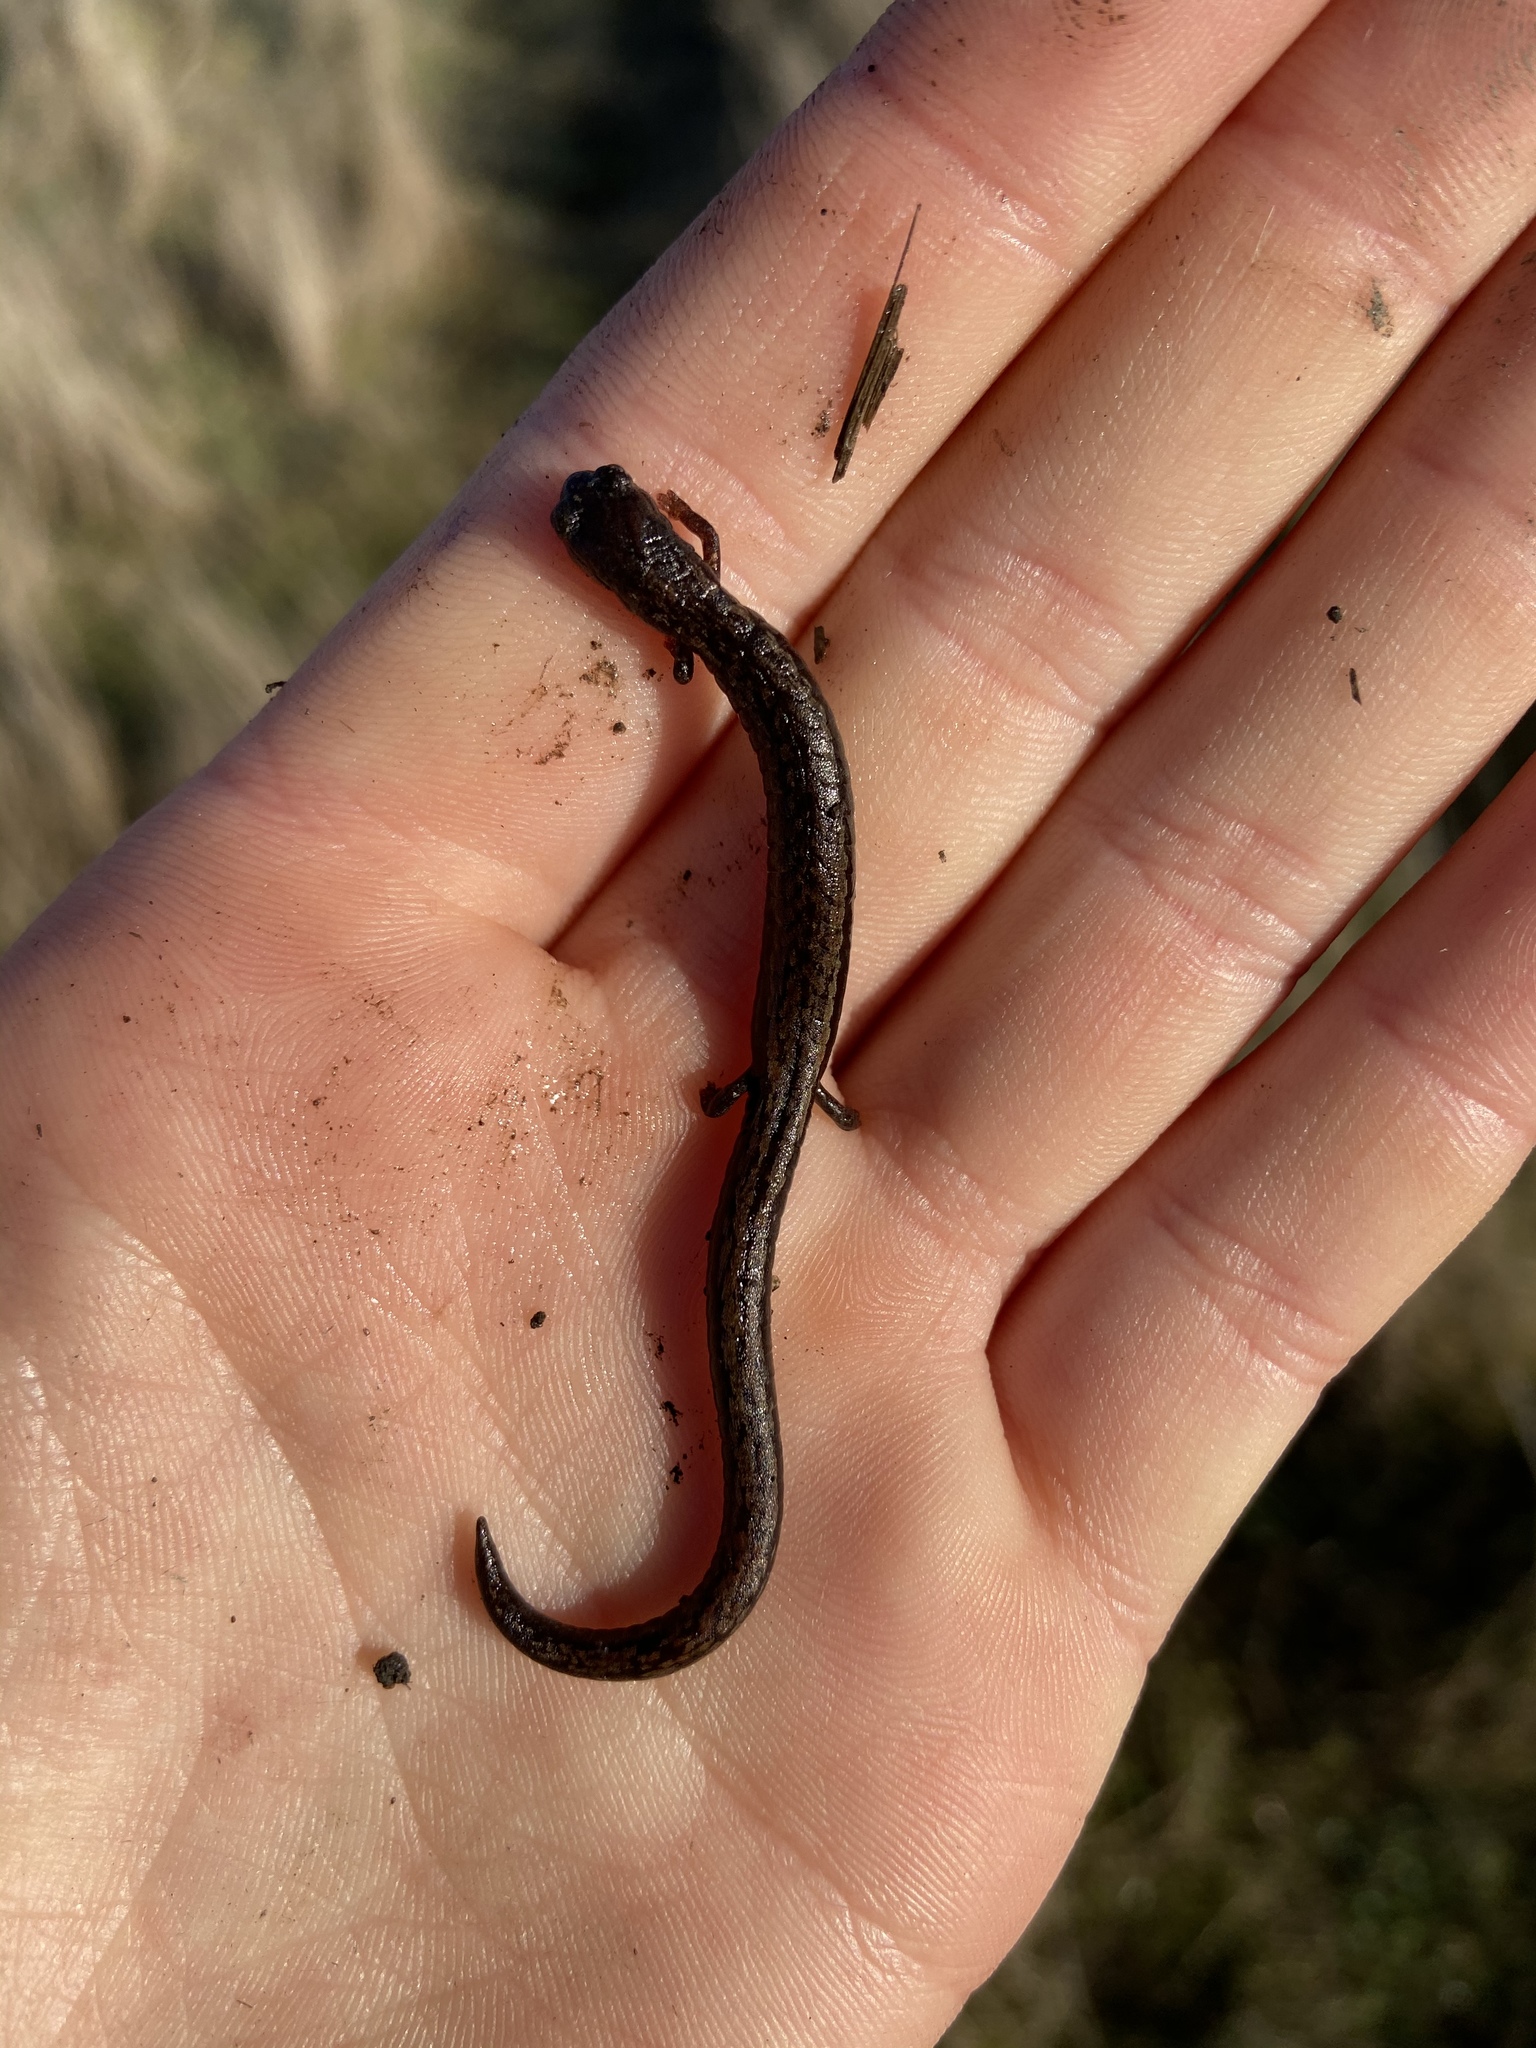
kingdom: Animalia
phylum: Chordata
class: Amphibia
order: Caudata
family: Plethodontidae
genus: Batrachoseps
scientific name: Batrachoseps attenuatus
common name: California slender salamander
